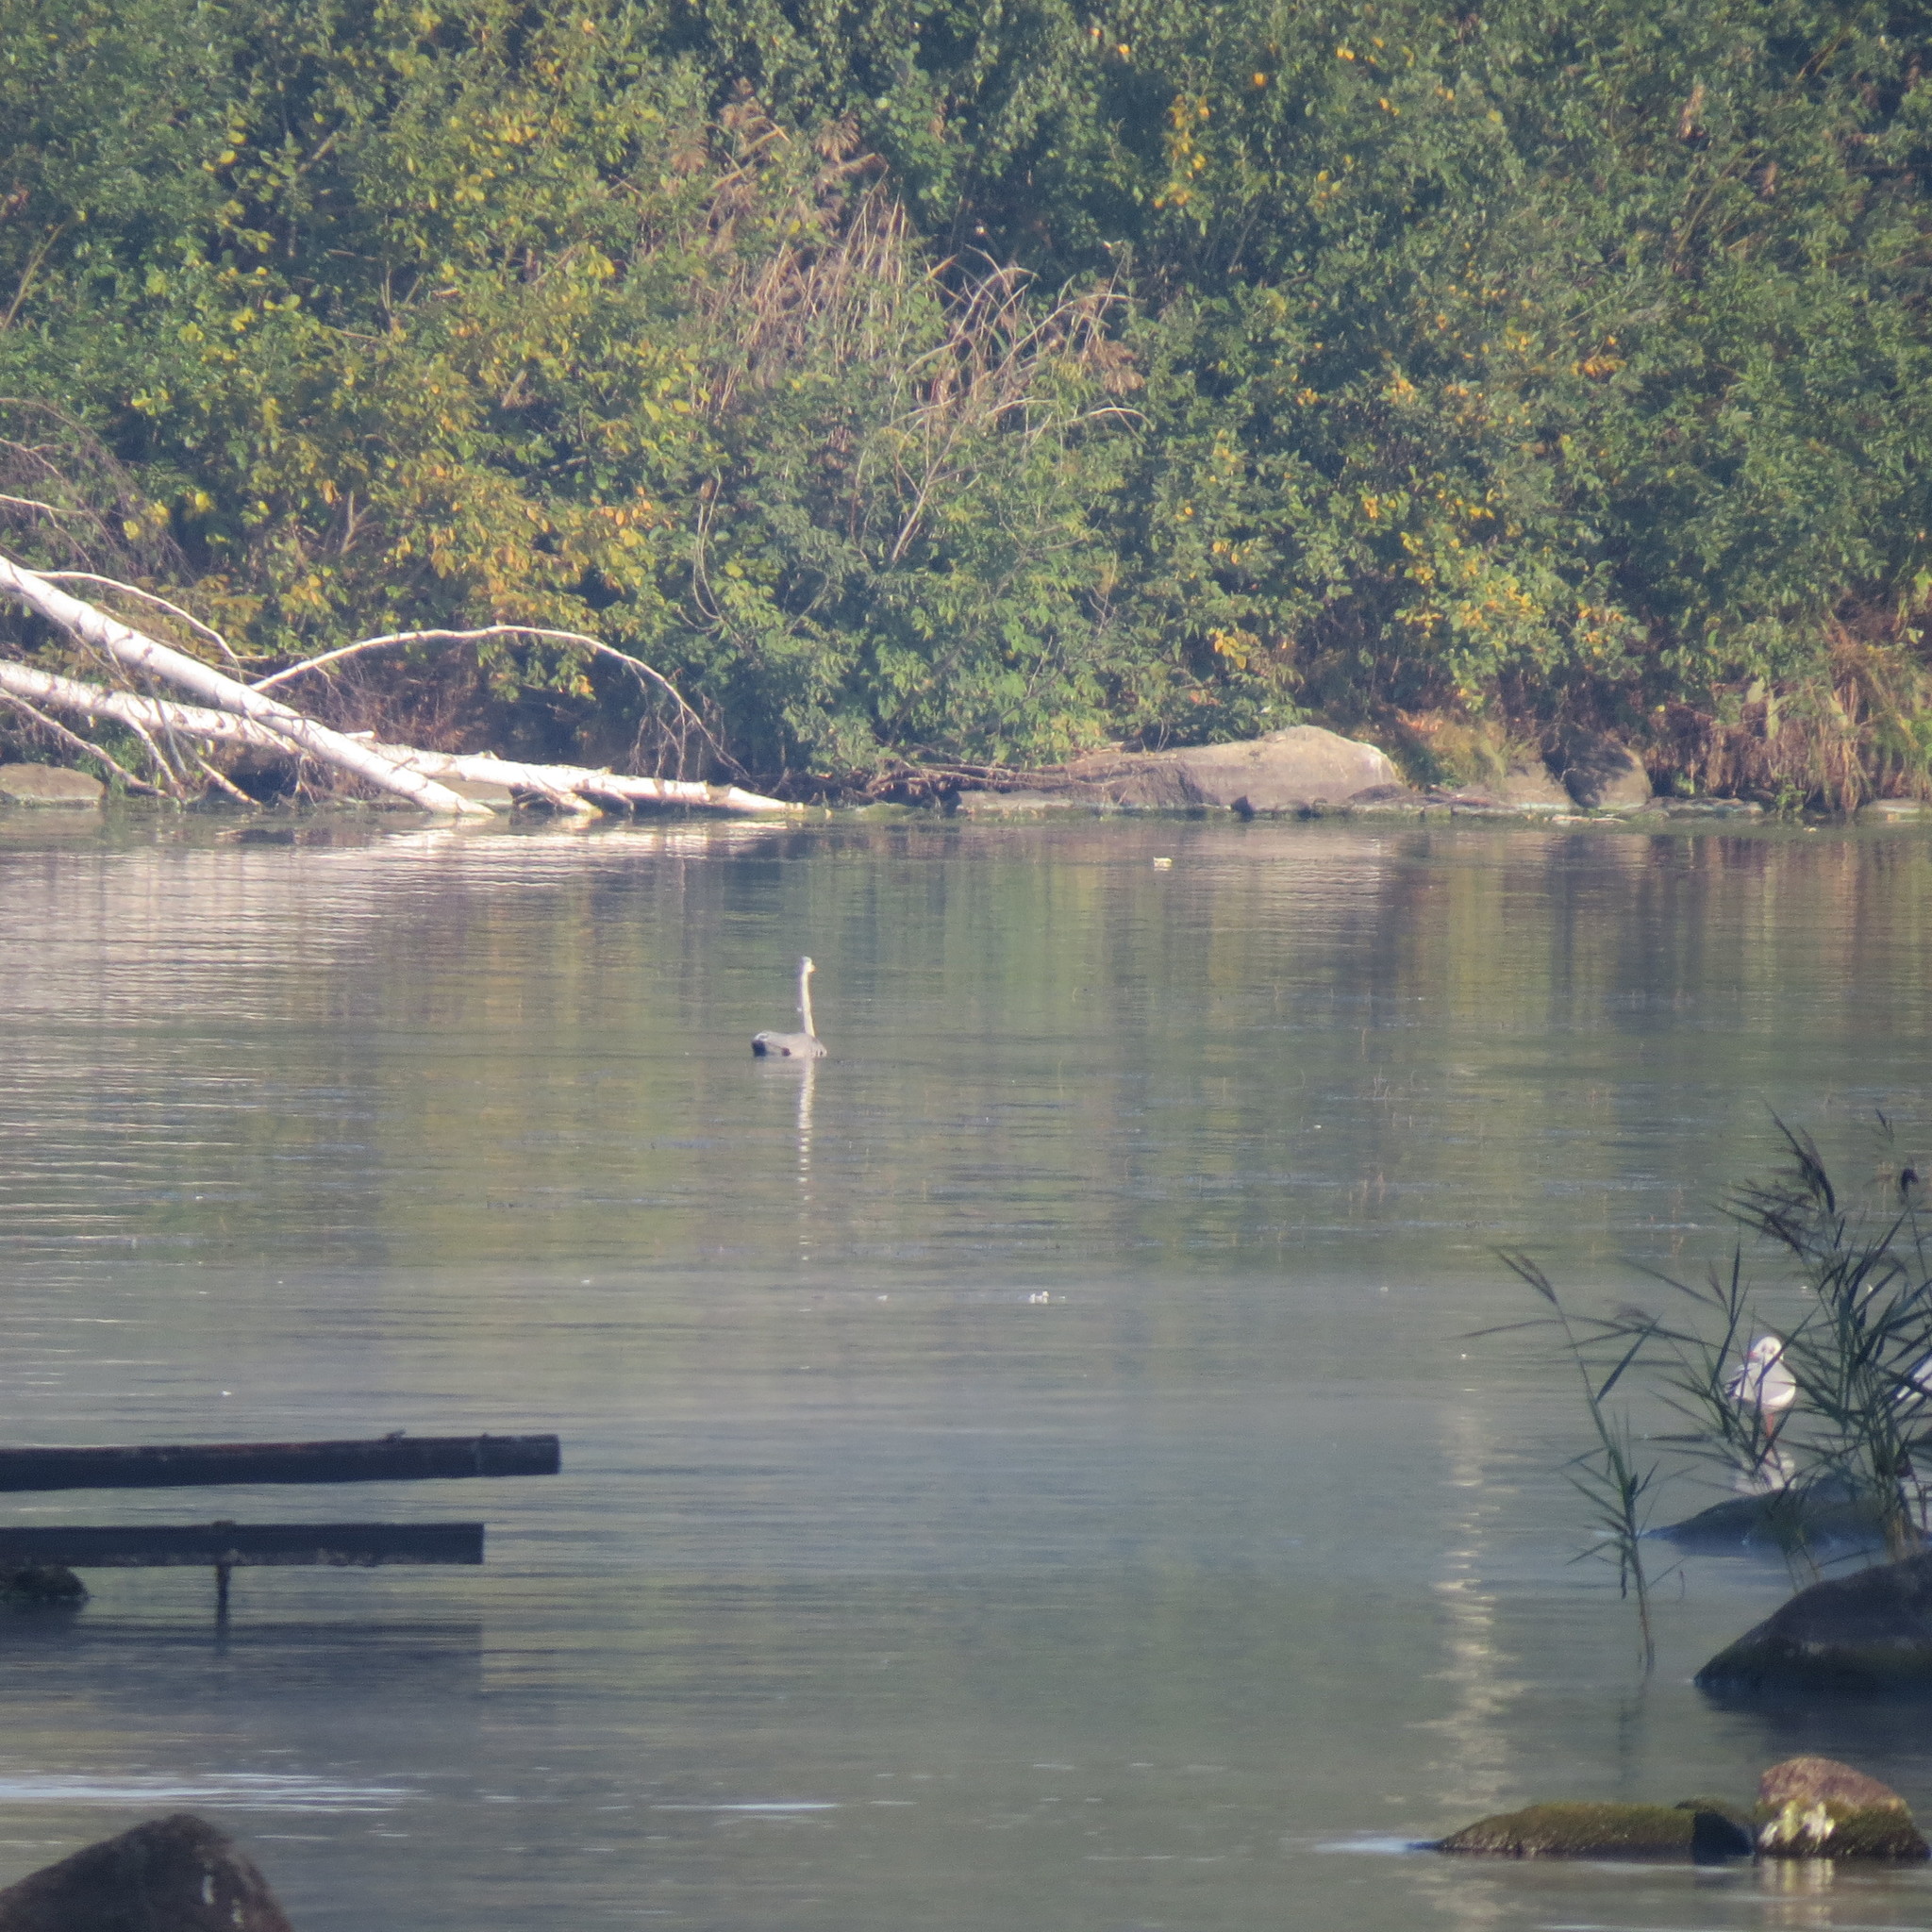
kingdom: Animalia
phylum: Chordata
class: Aves
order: Pelecaniformes
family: Ardeidae
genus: Ardea
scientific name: Ardea cinerea
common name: Grey heron
